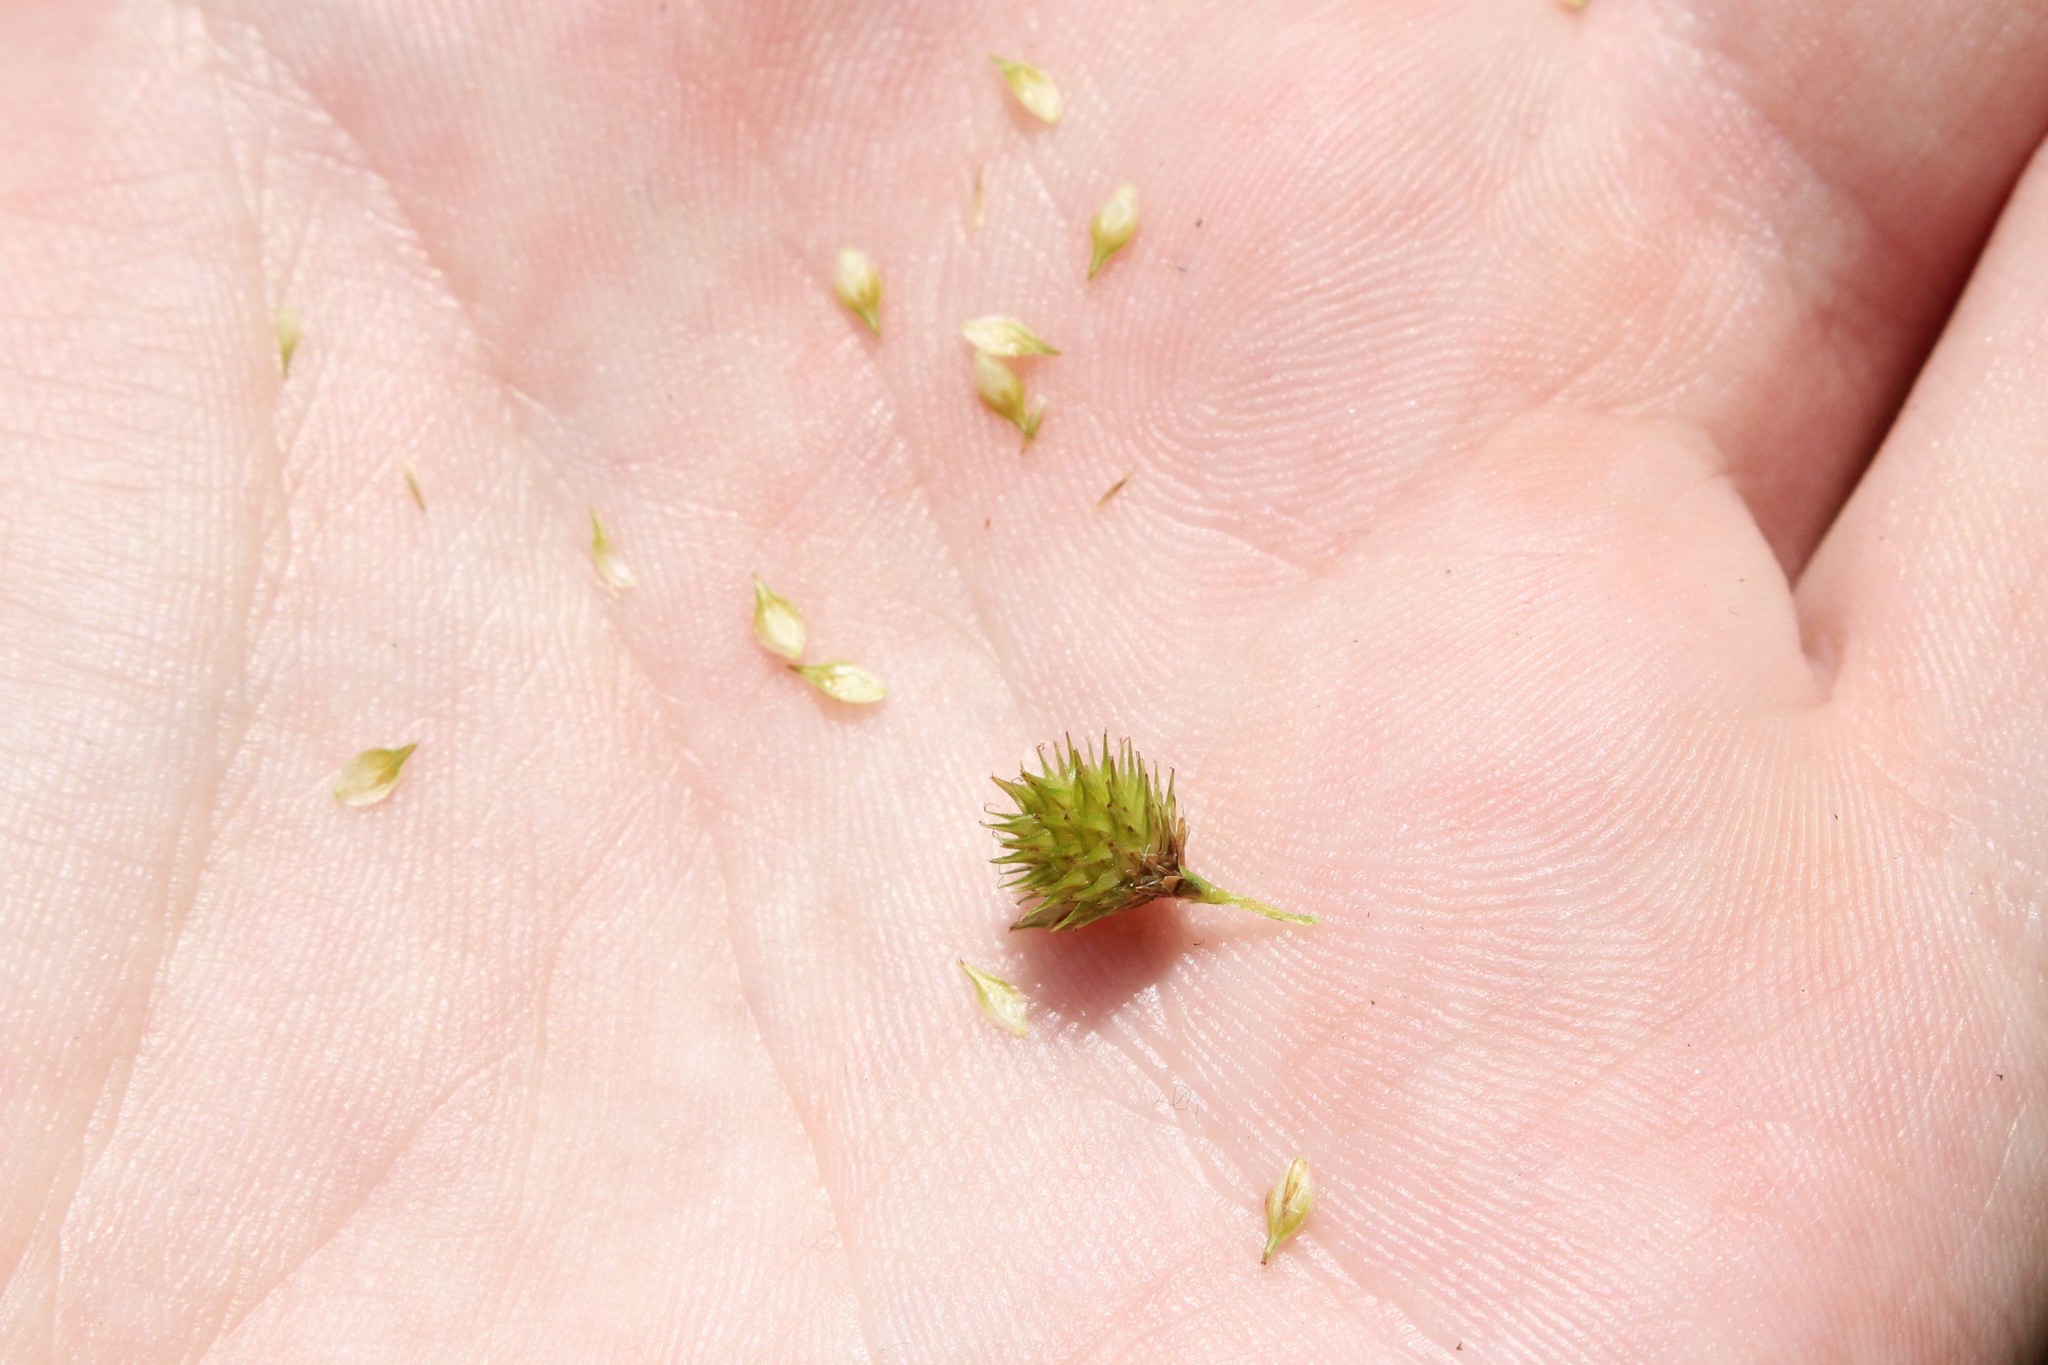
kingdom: Plantae
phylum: Tracheophyta
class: Liliopsida
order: Poales
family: Cyperaceae
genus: Carex
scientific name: Carex cristatella
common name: Crested oval sedge
